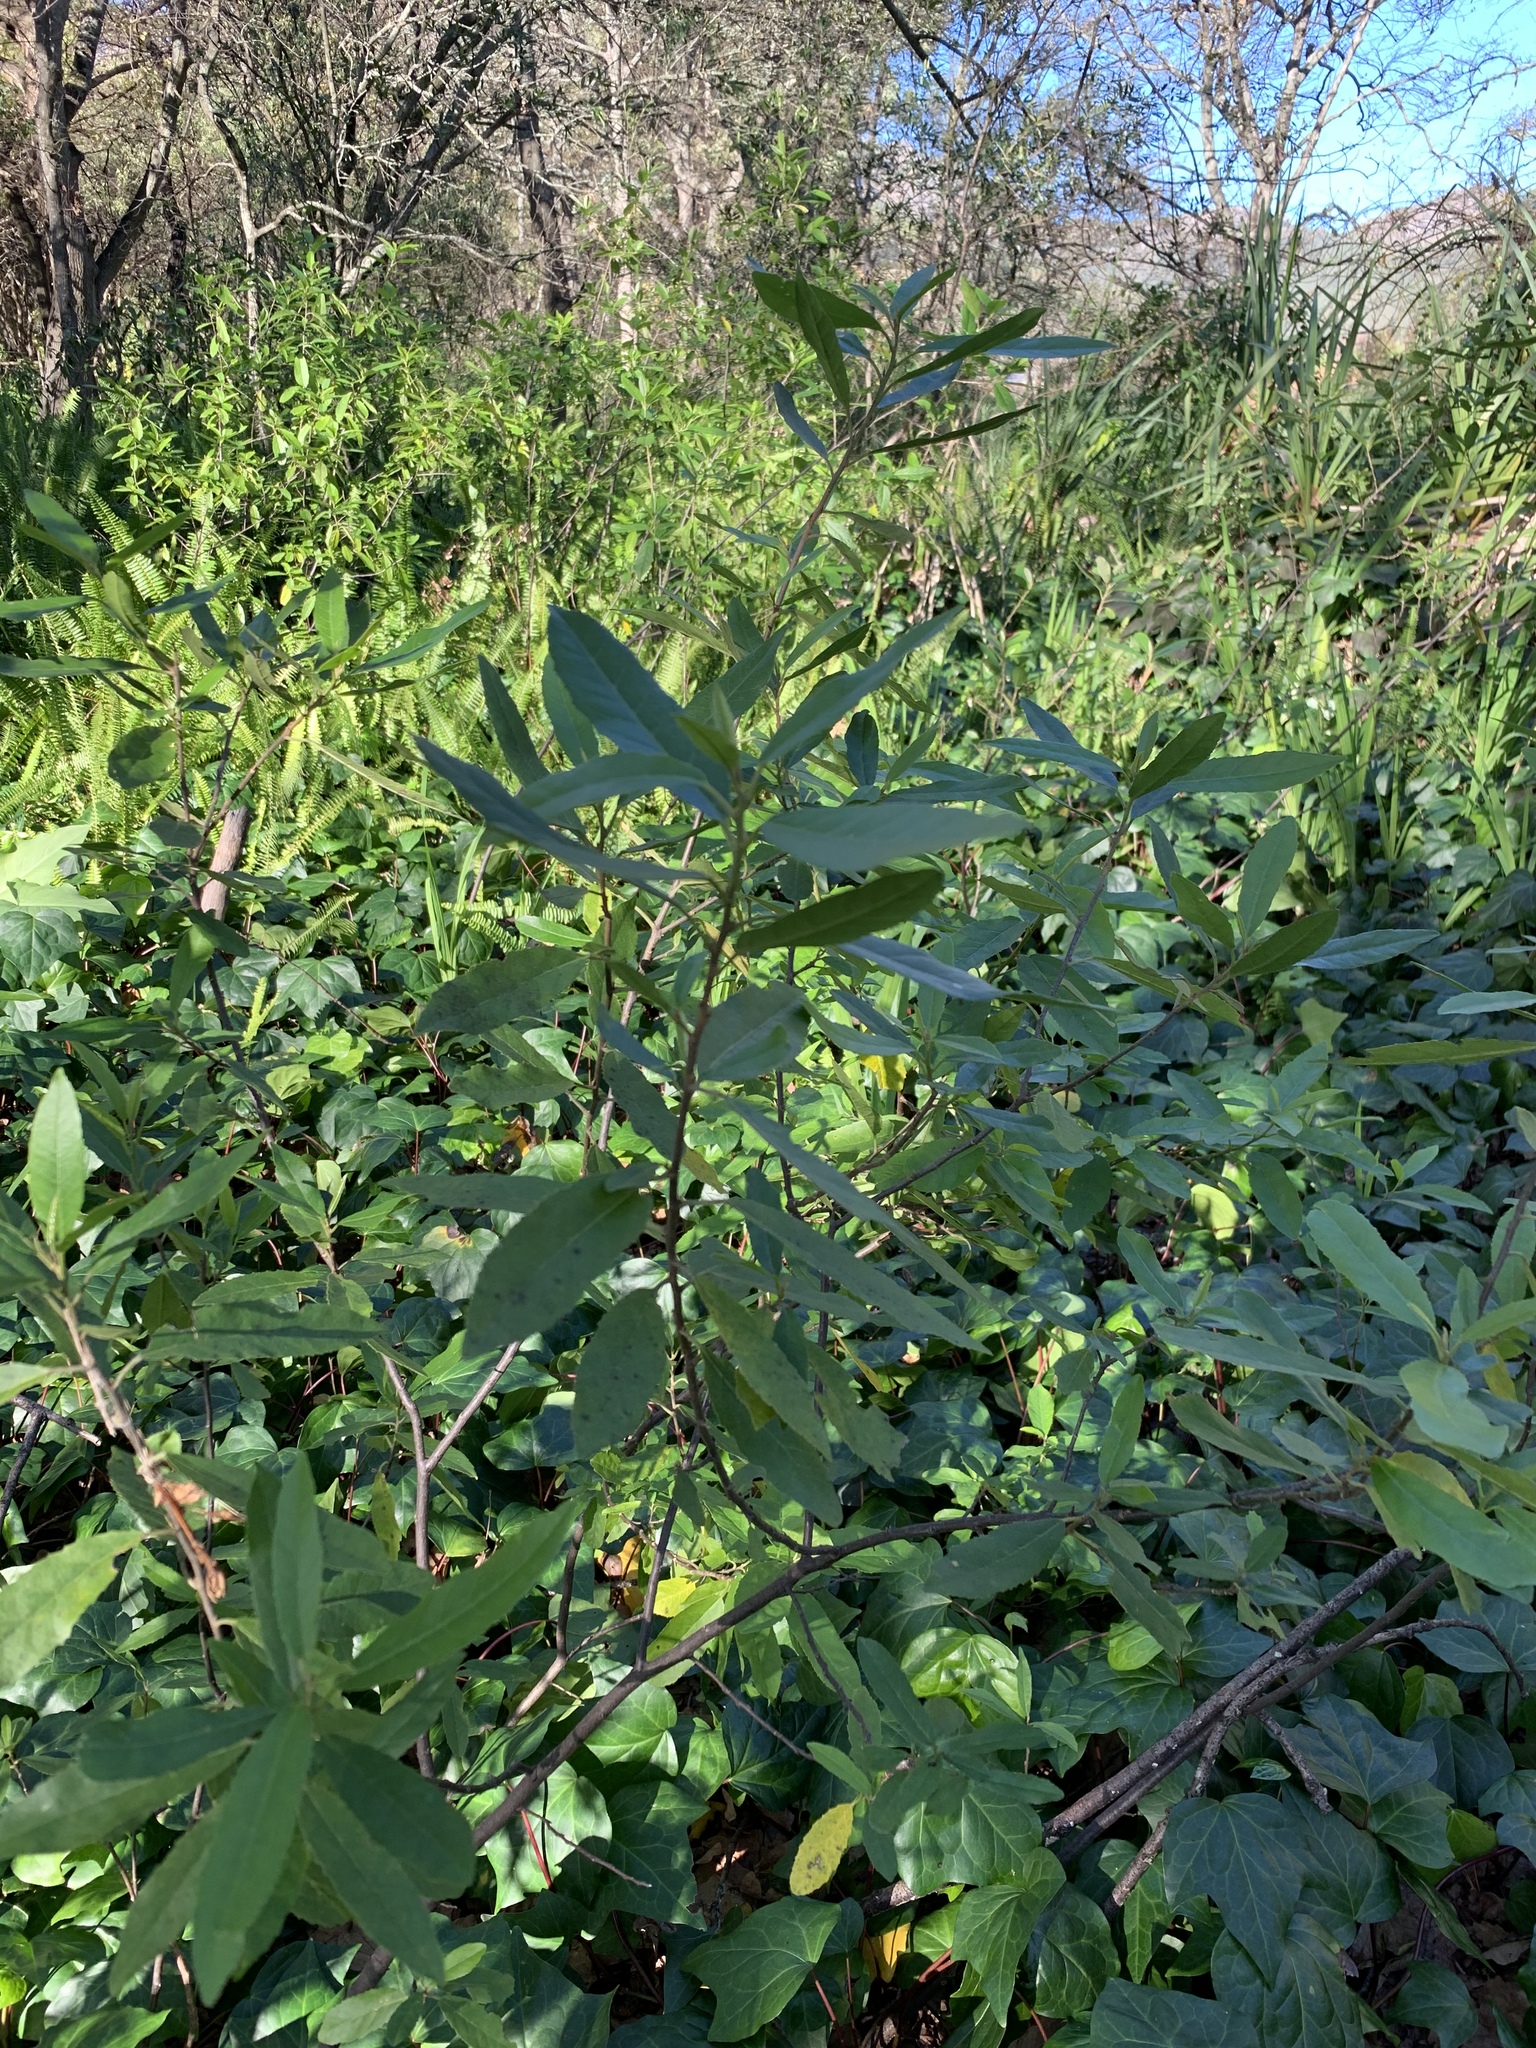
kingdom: Plantae
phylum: Tracheophyta
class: Magnoliopsida
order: Malpighiales
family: Achariaceae
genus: Kiggelaria
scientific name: Kiggelaria africana
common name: Wild peach
